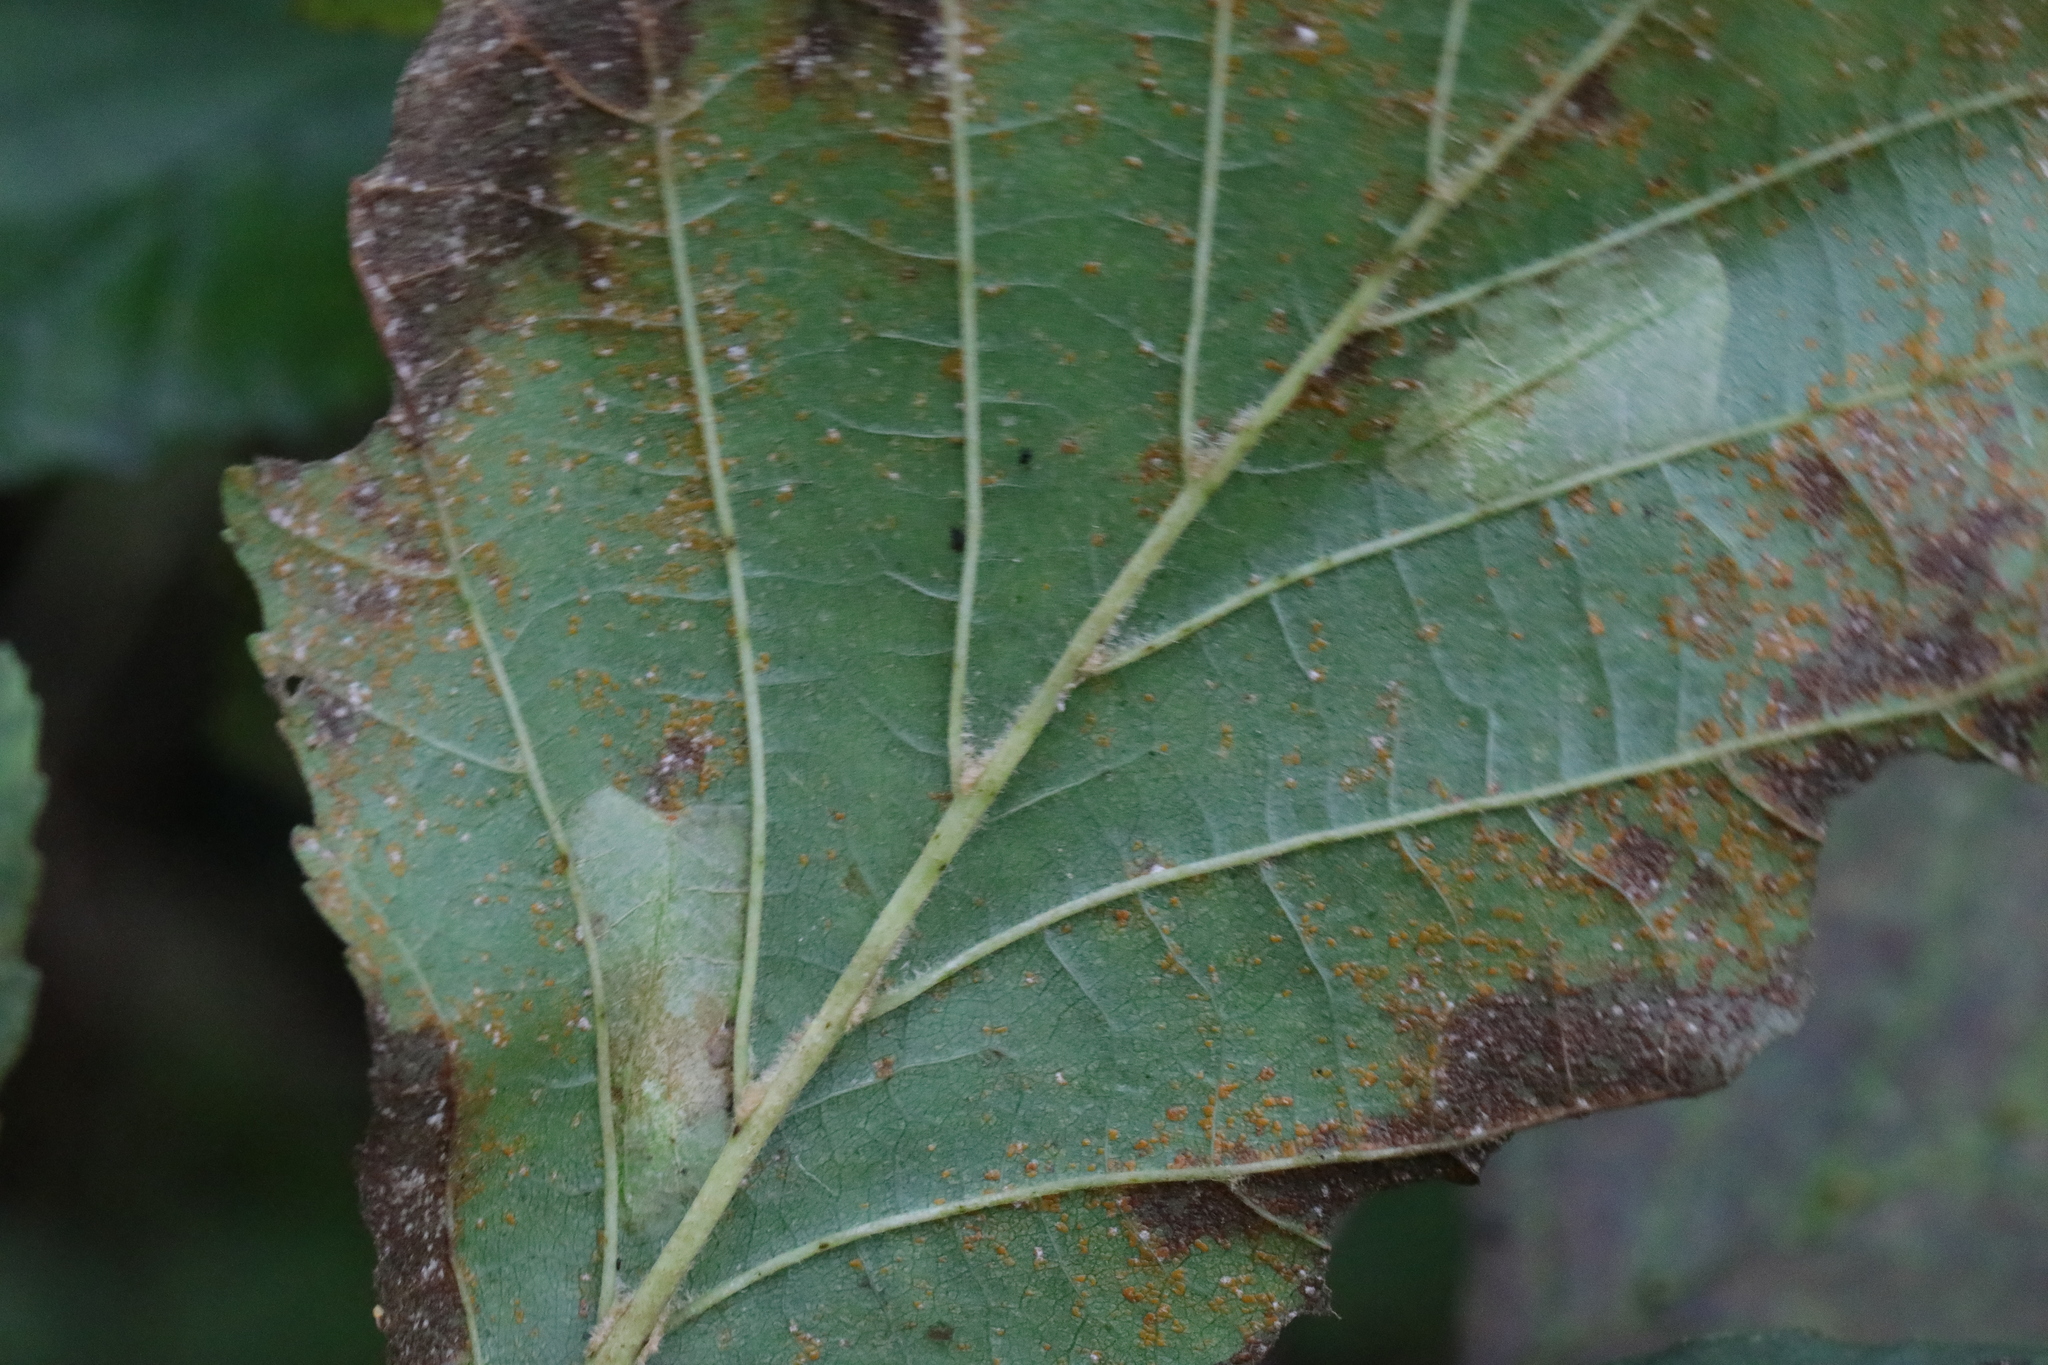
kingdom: Animalia
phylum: Arthropoda
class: Insecta
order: Lepidoptera
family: Gracillariidae
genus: Phyllonorycter
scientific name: Phyllonorycter klemannella
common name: Dark alder midget
